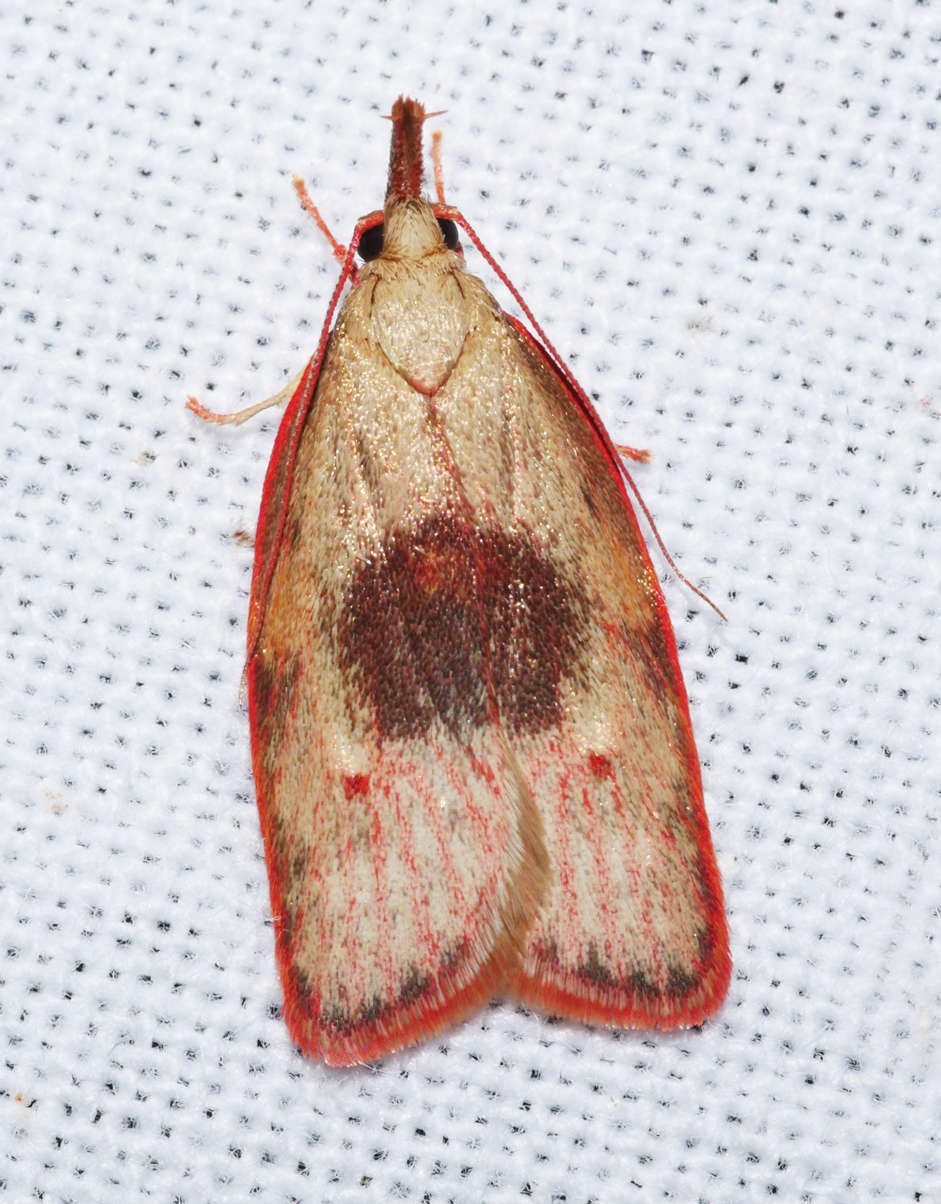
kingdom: Animalia
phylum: Arthropoda
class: Insecta
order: Lepidoptera
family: Depressariidae
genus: Enchocrates
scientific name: Enchocrates glaucopis
